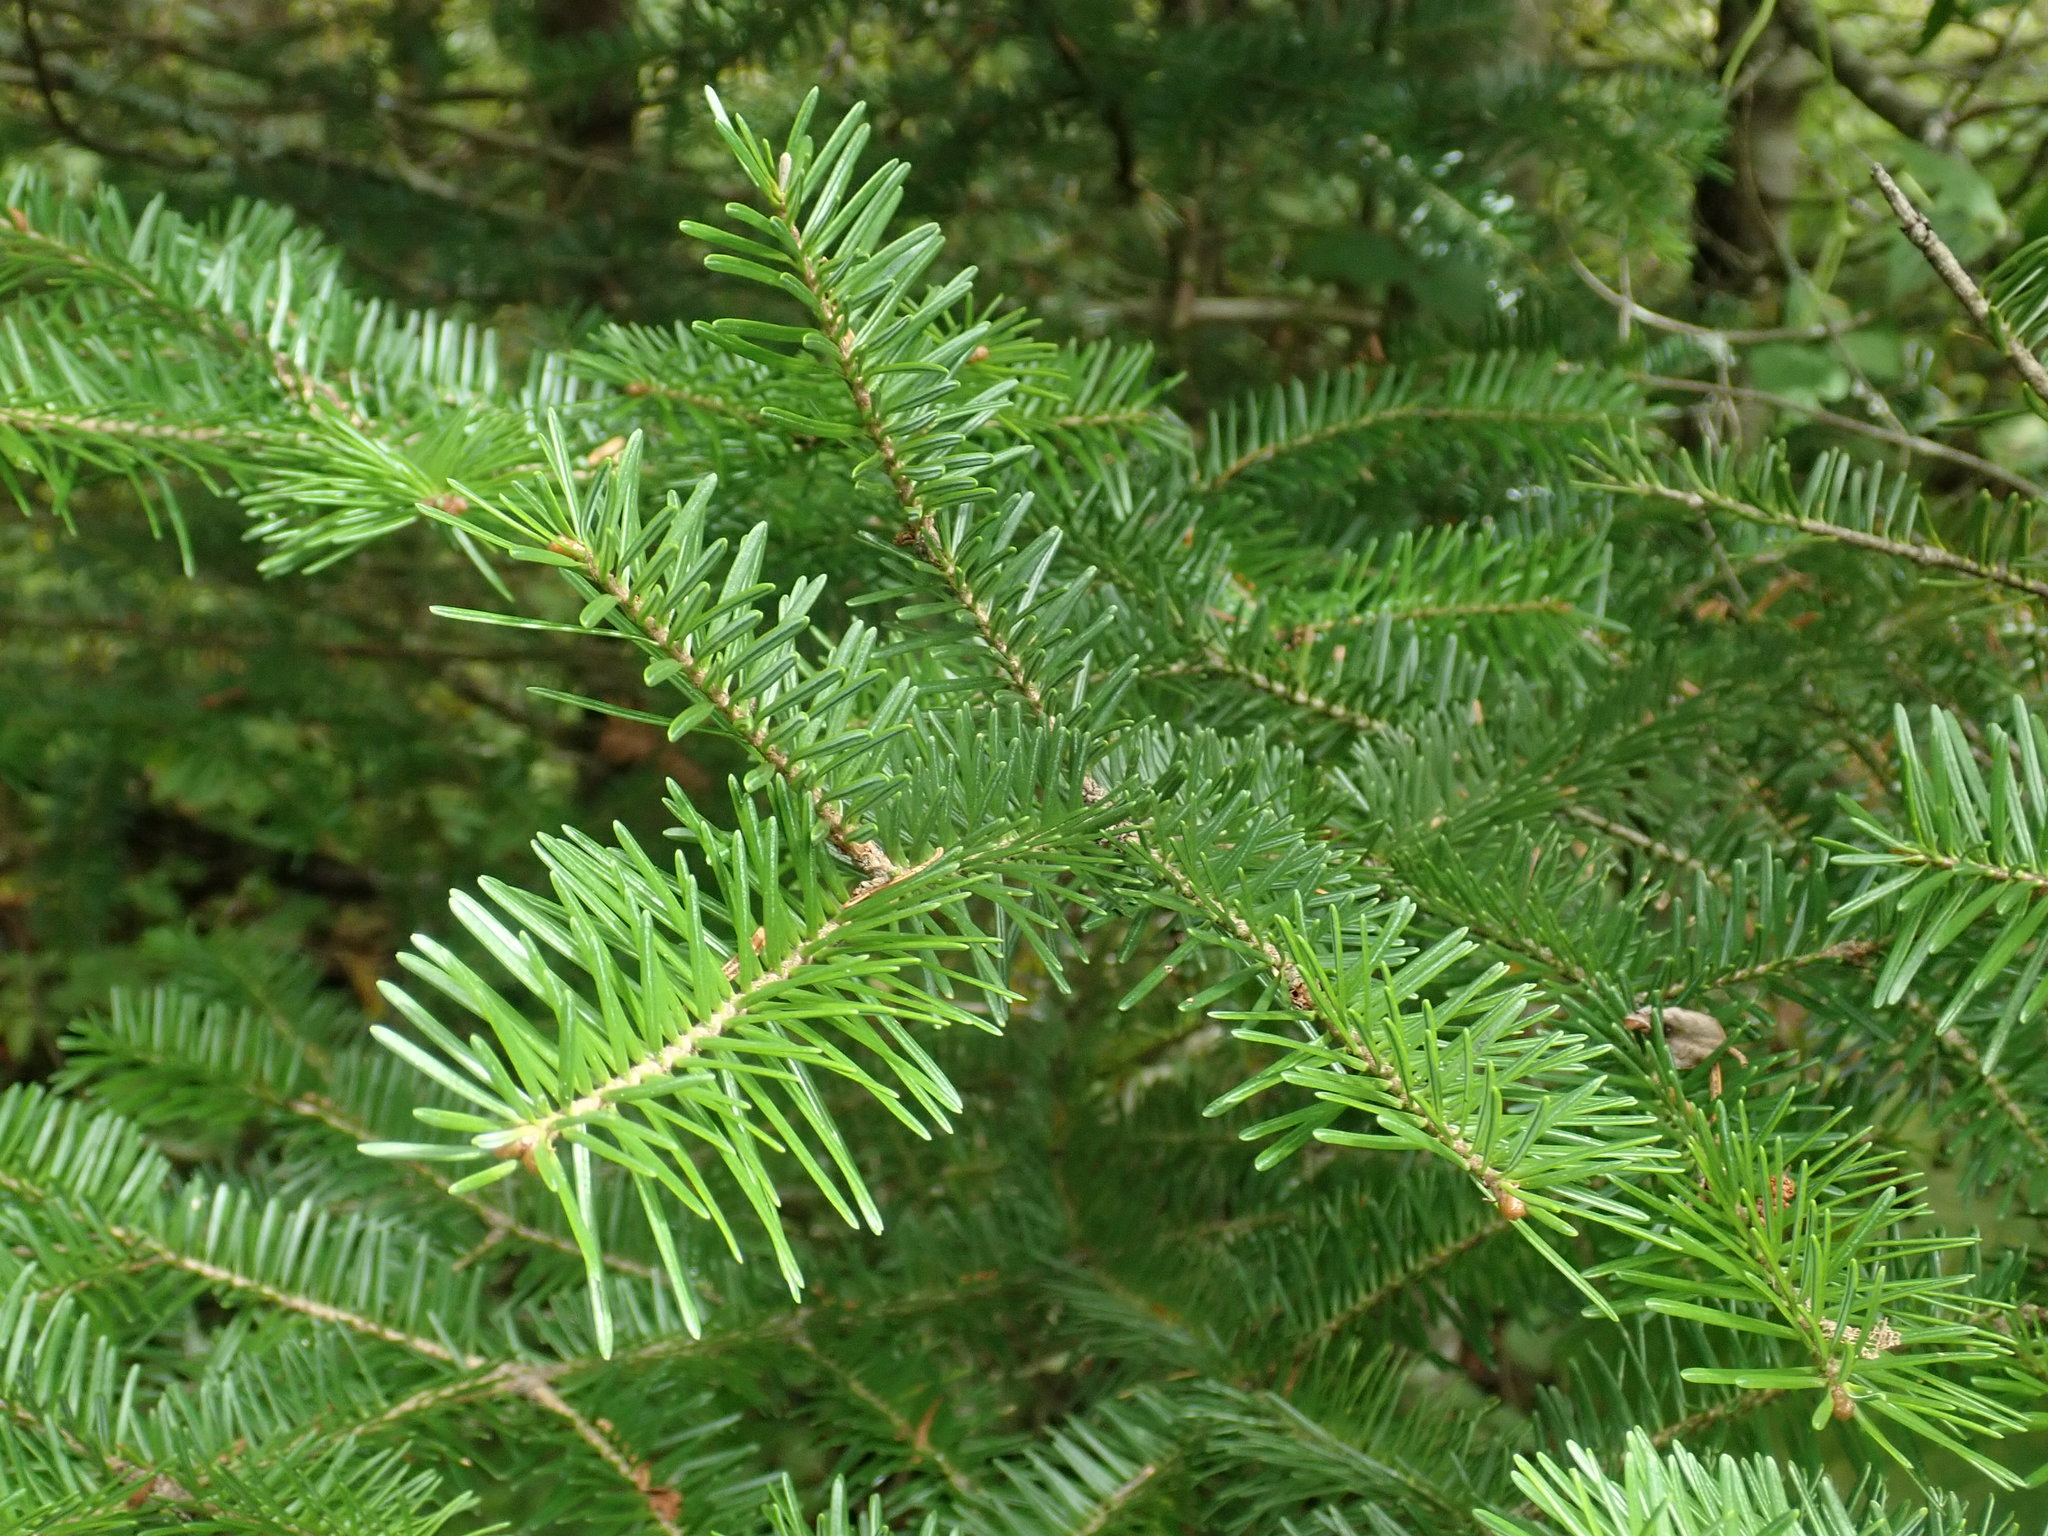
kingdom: Plantae
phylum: Tracheophyta
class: Pinopsida
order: Pinales
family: Pinaceae
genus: Abies
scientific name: Abies balsamea
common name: Balsam fir
